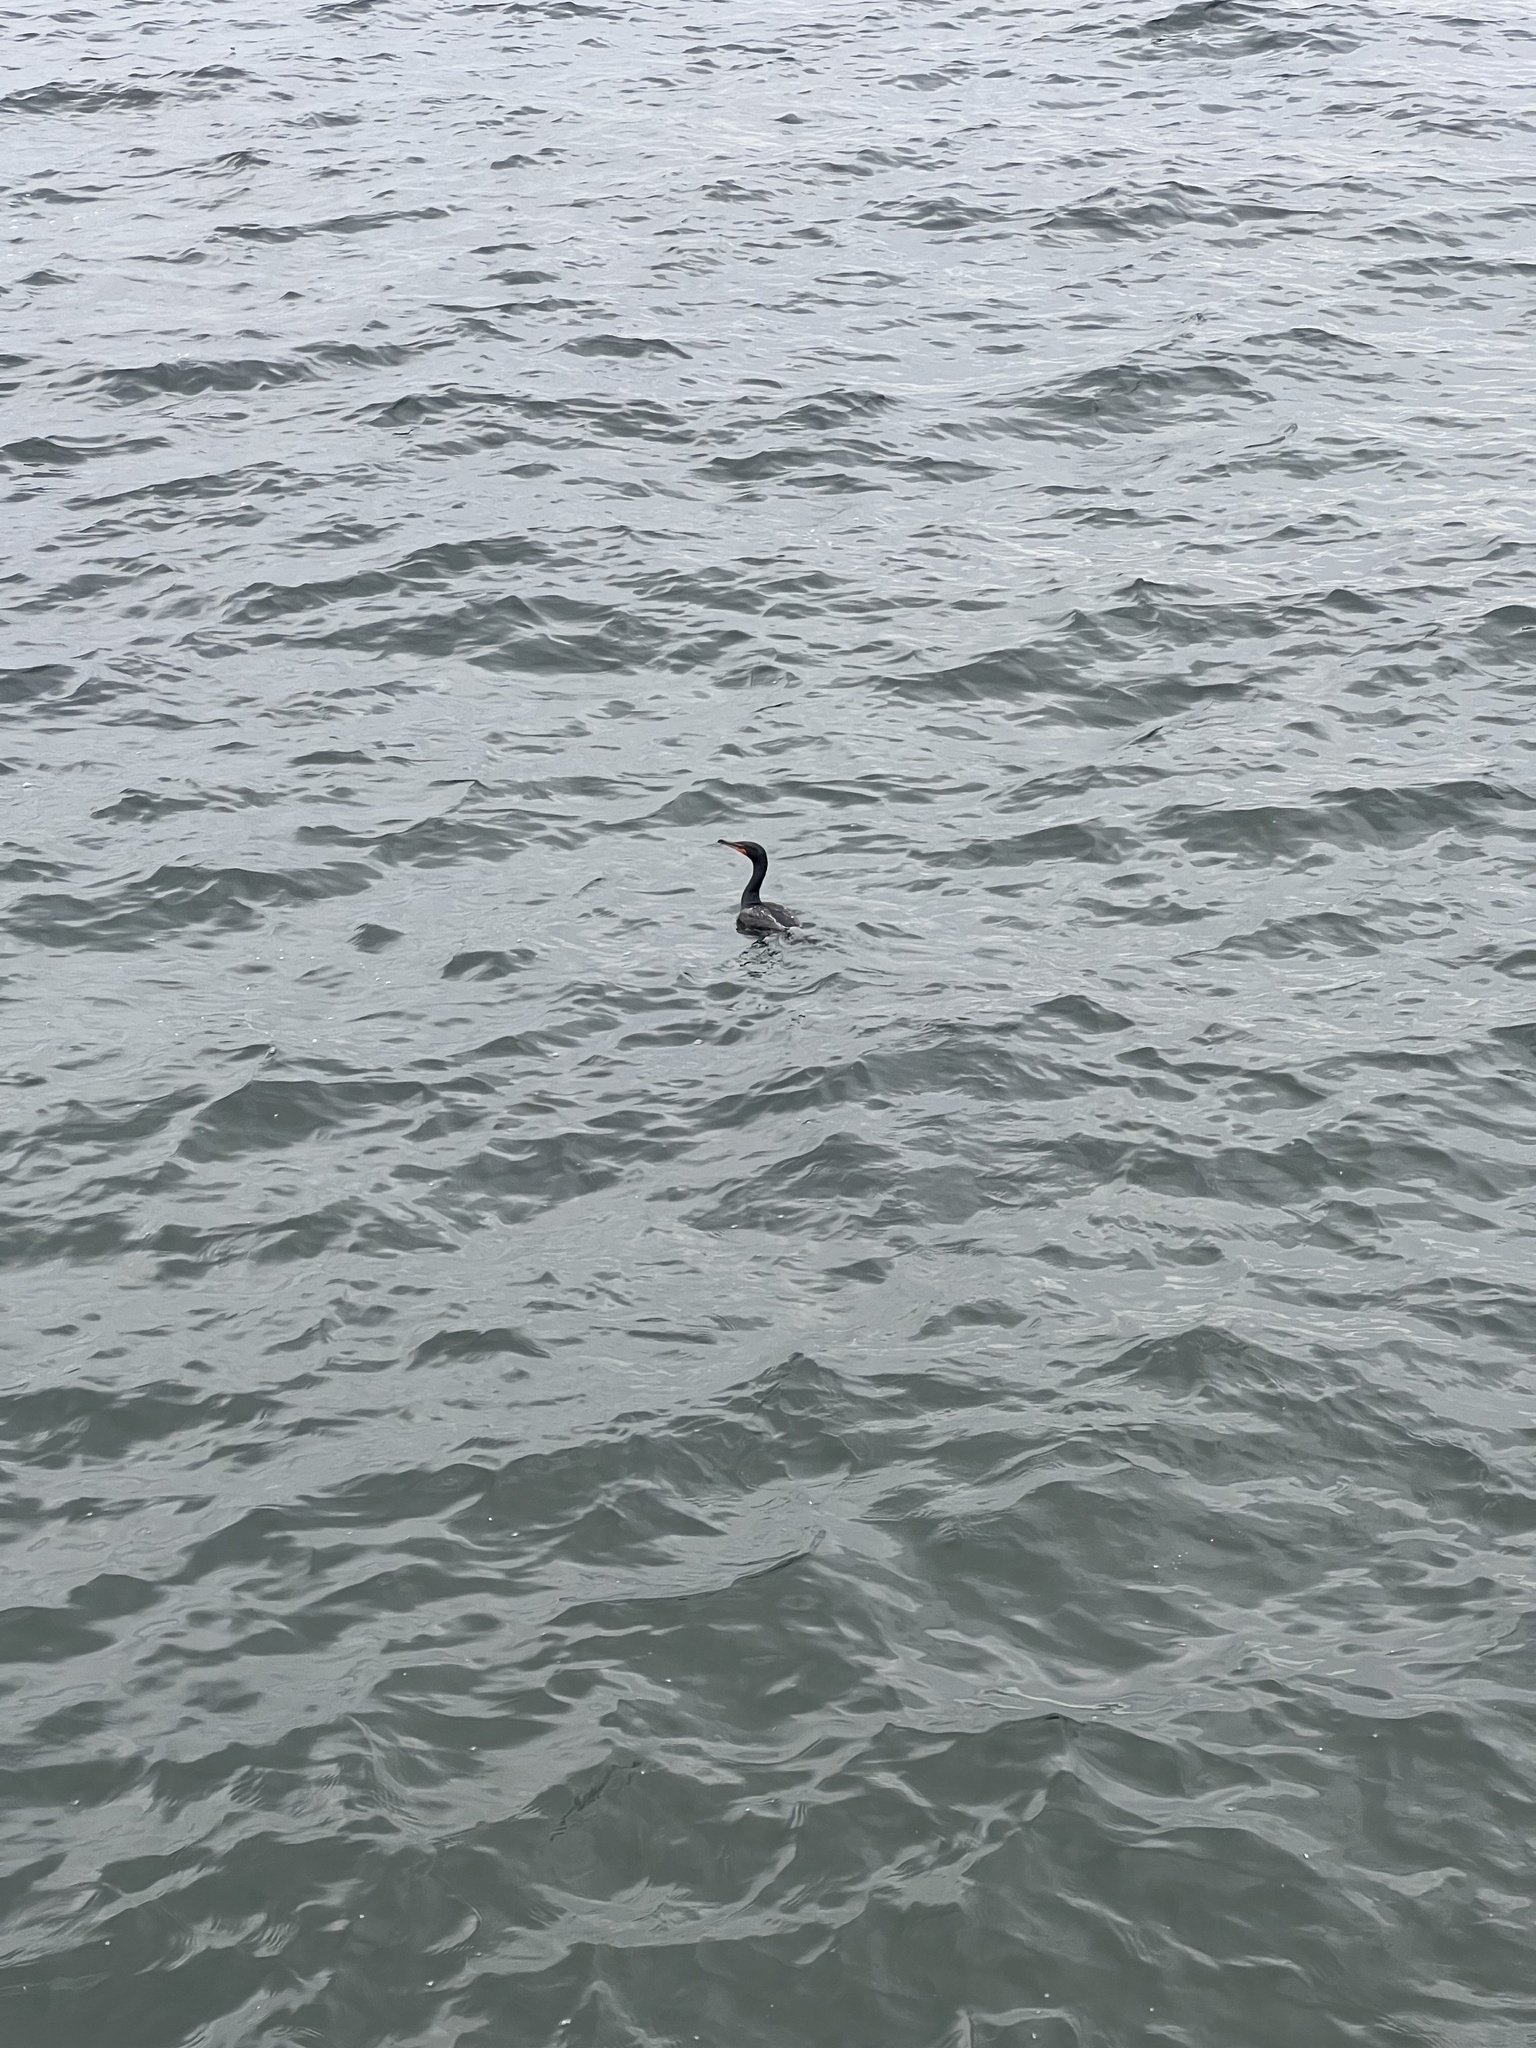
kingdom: Animalia
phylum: Chordata
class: Aves
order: Suliformes
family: Phalacrocoracidae
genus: Phalacrocorax
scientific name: Phalacrocorax auritus
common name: Double-crested cormorant
